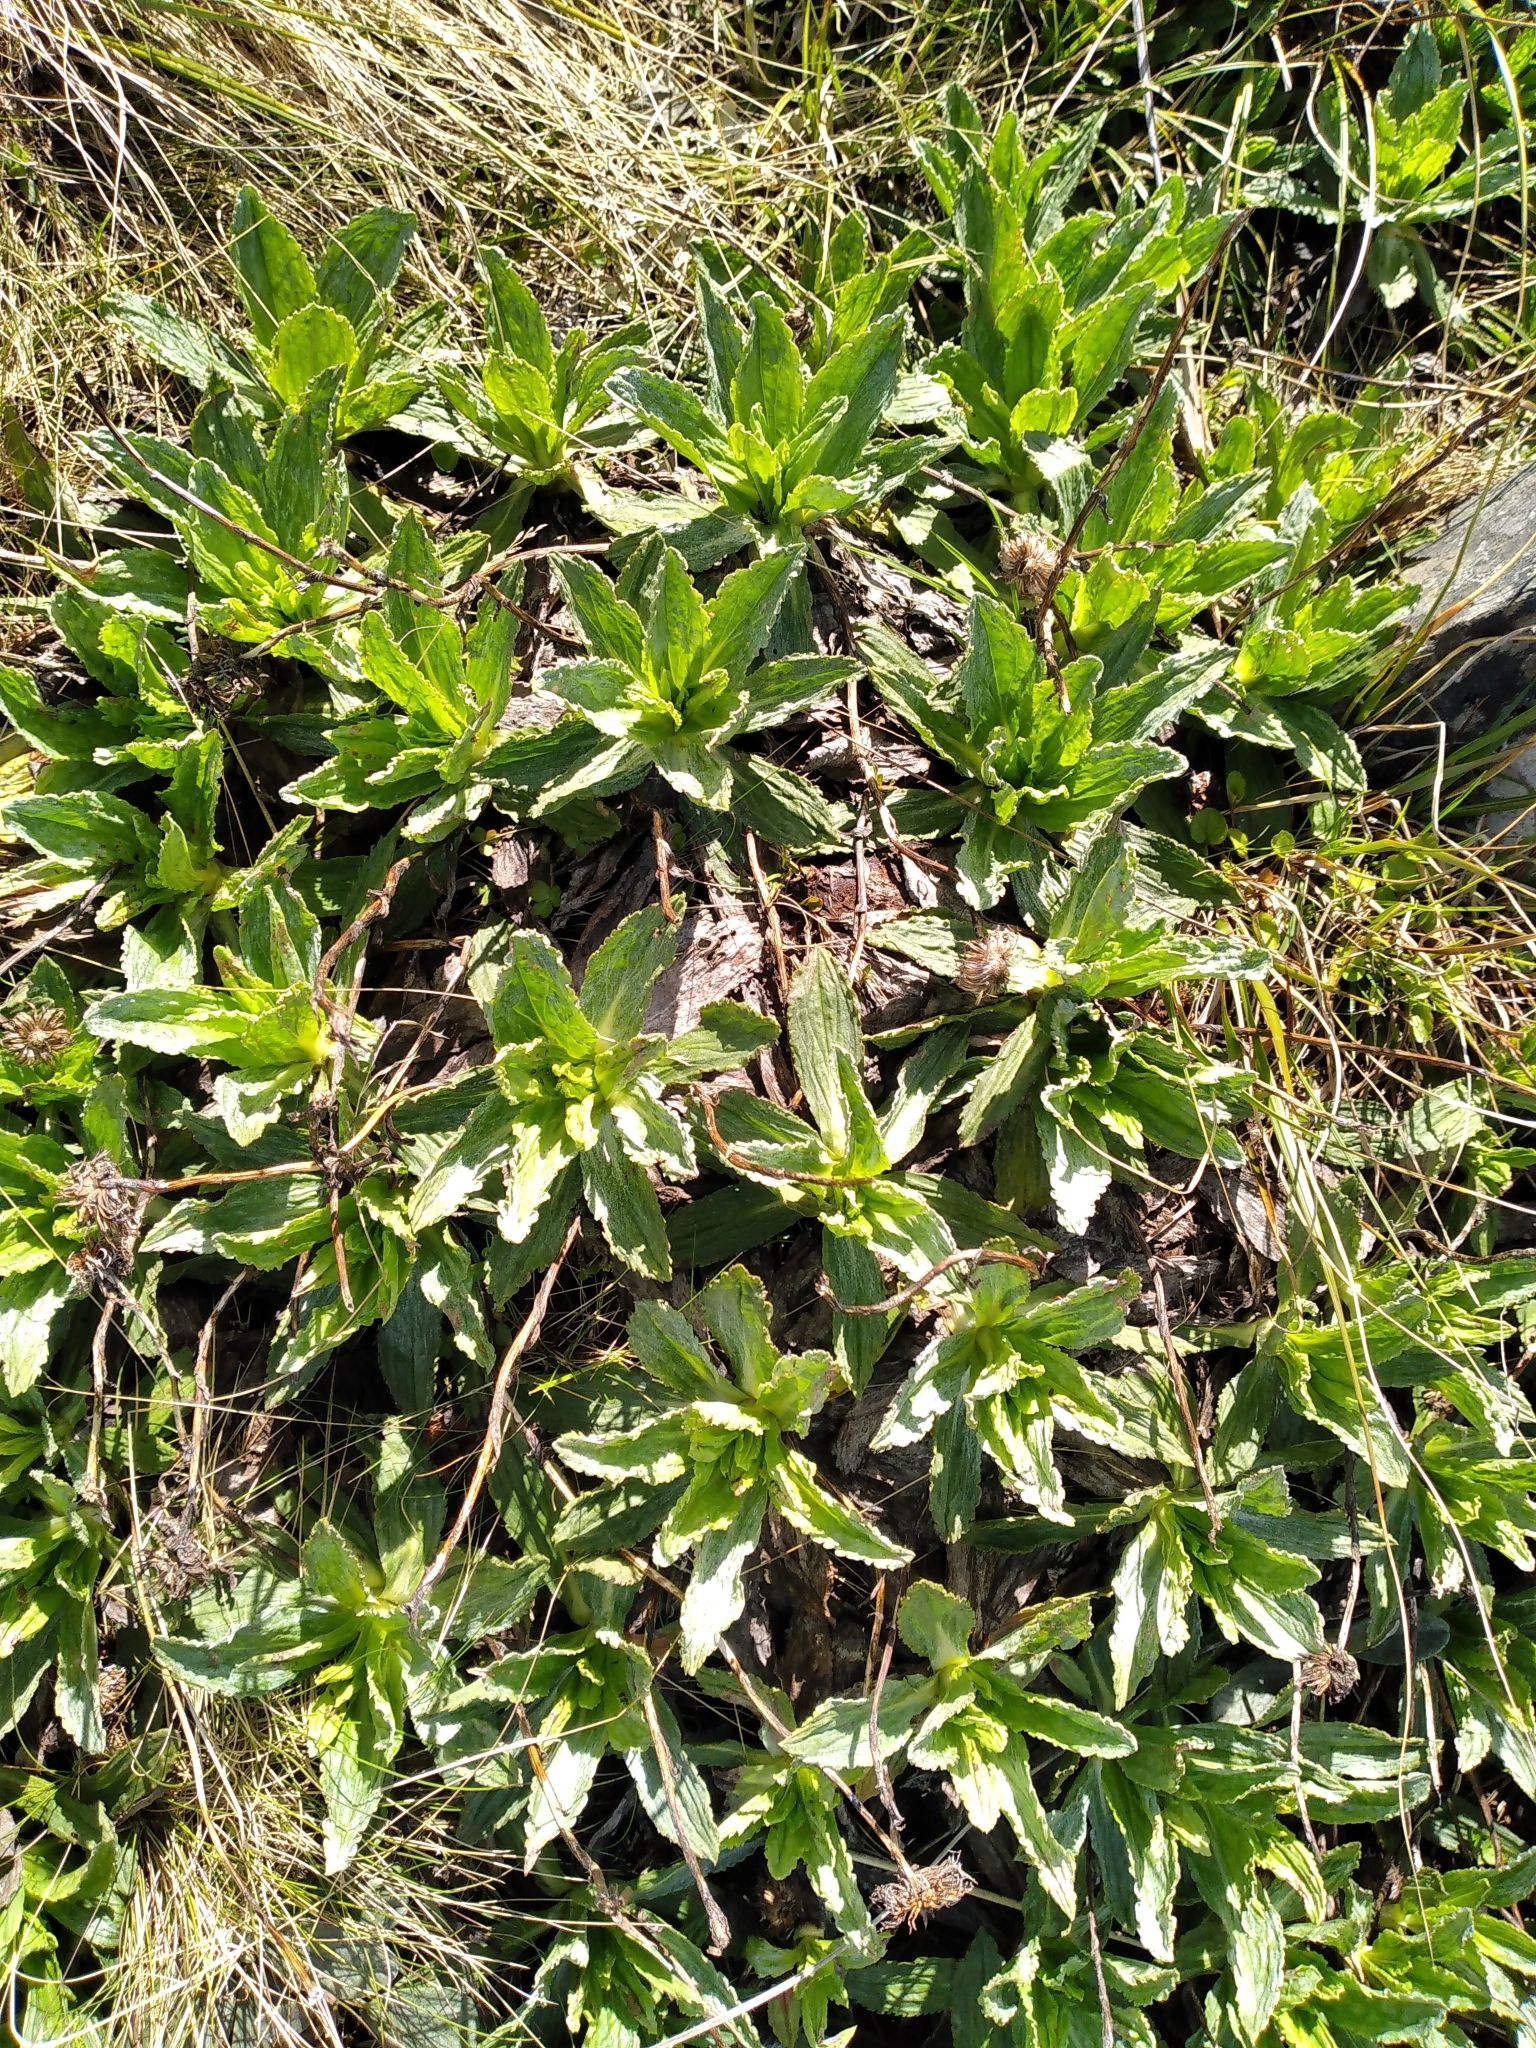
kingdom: Plantae
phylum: Tracheophyta
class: Magnoliopsida
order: Asterales
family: Asteraceae
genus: Celmisia
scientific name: Celmisia prorepens
